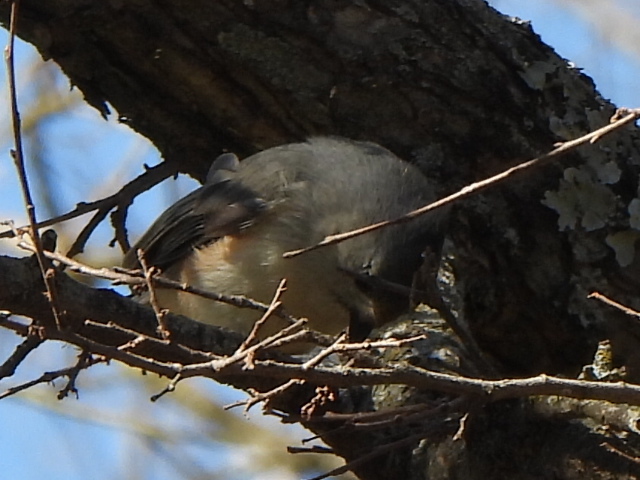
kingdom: Animalia
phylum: Chordata
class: Aves
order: Passeriformes
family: Paridae
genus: Baeolophus
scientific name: Baeolophus
